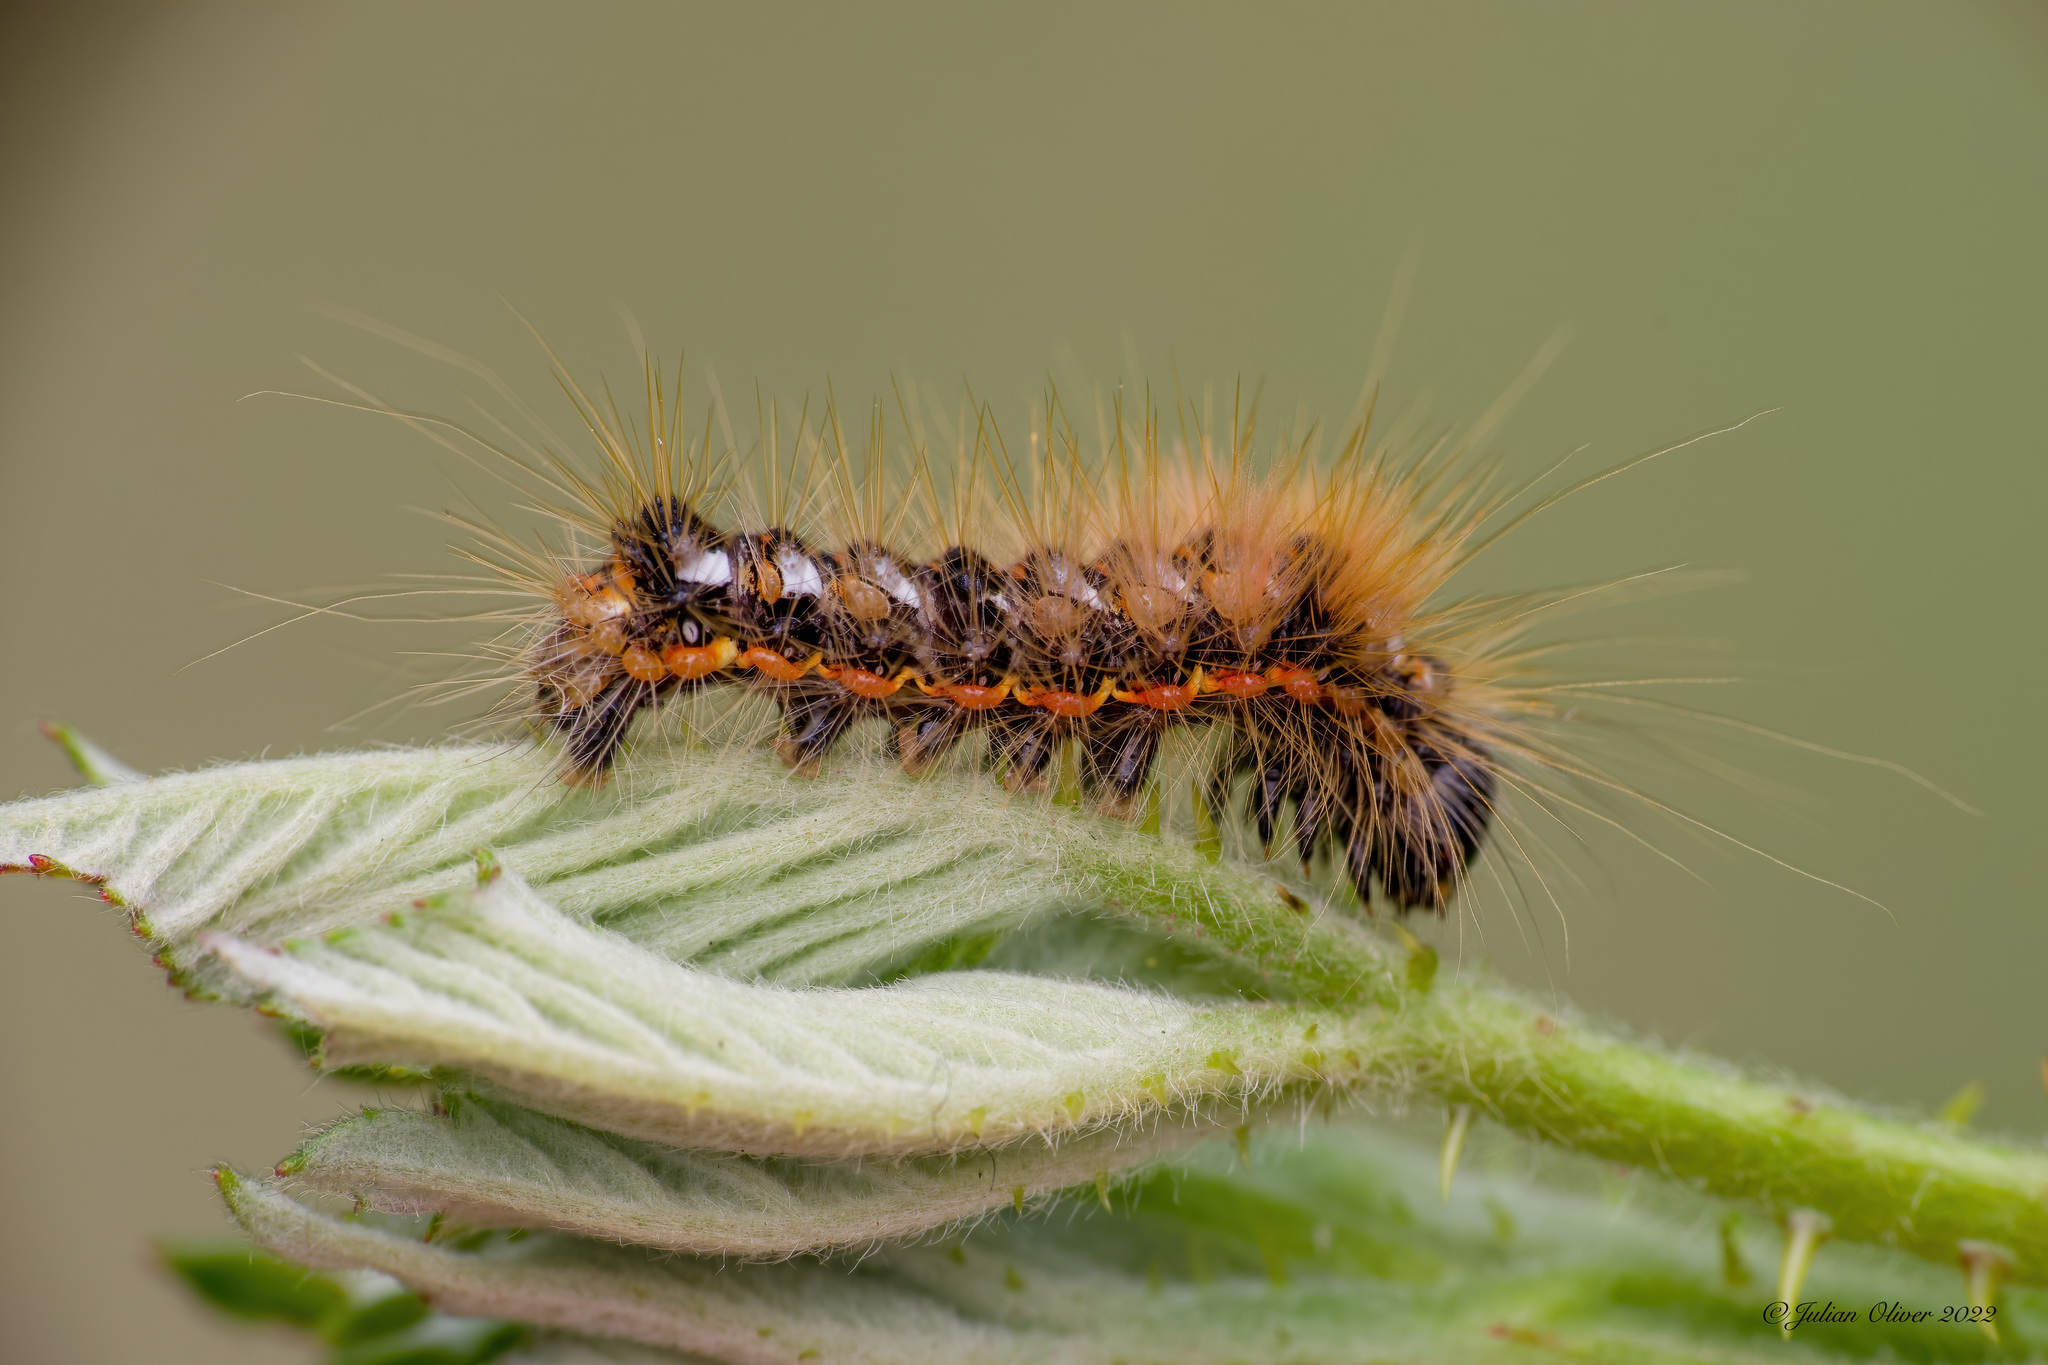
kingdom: Animalia
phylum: Arthropoda
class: Insecta
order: Lepidoptera
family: Noctuidae
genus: Acronicta
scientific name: Acronicta rumicis
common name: Knot grass
